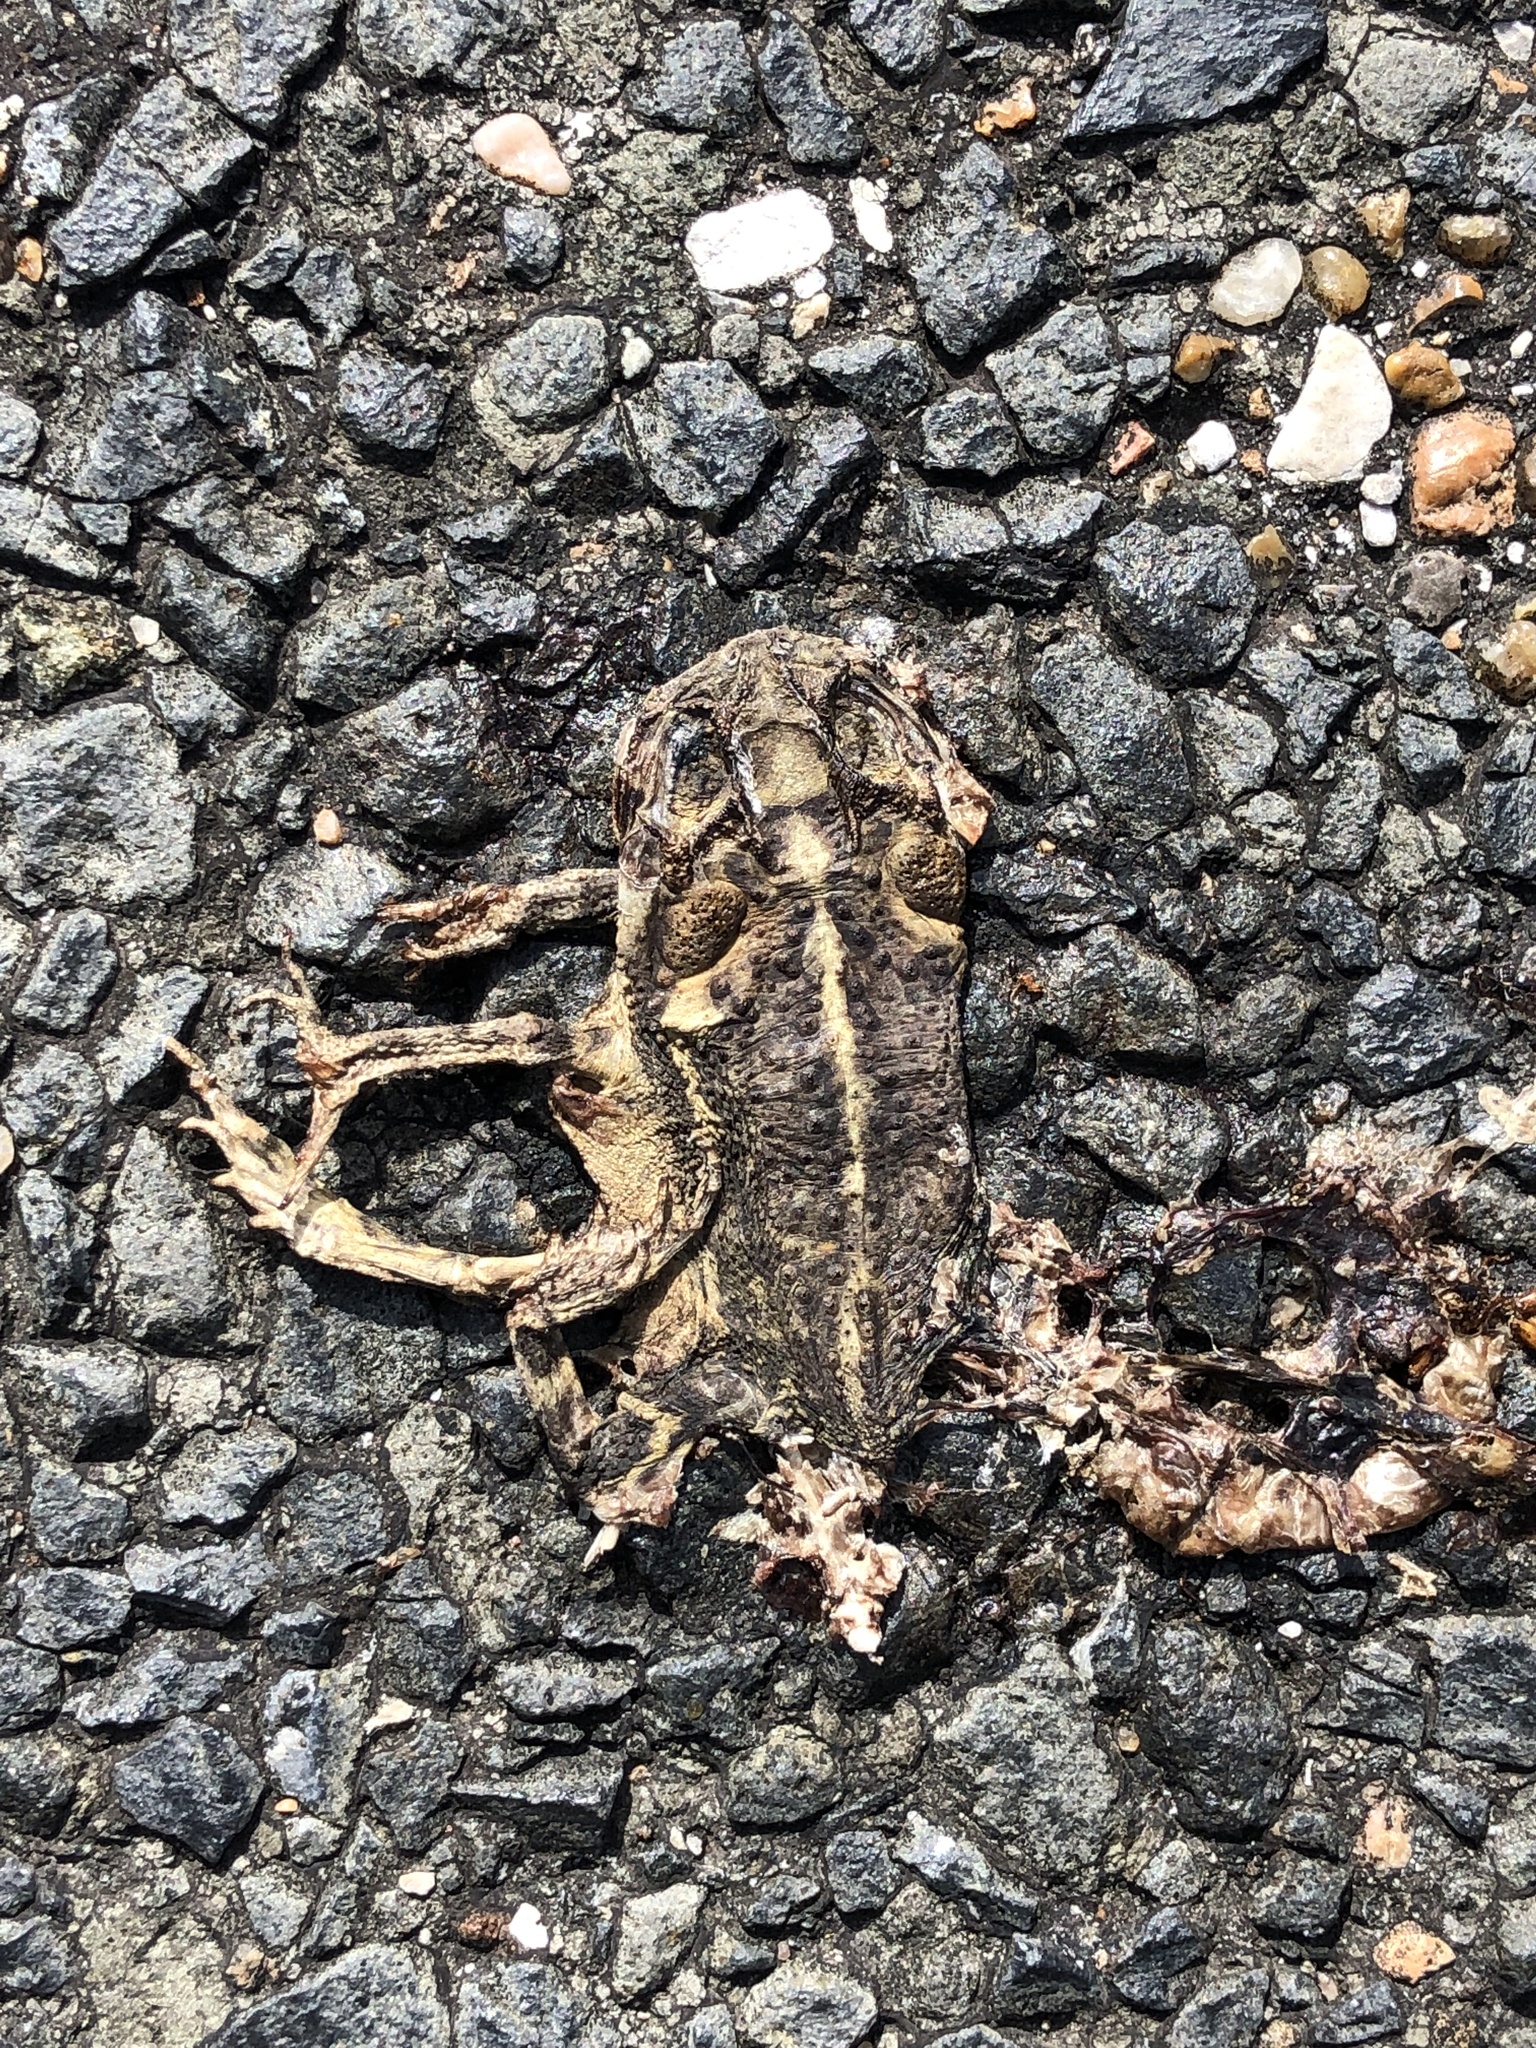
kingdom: Animalia
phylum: Chordata
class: Amphibia
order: Anura
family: Bufonidae
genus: Incilius
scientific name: Incilius nebulifer
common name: Gulf coast toad
